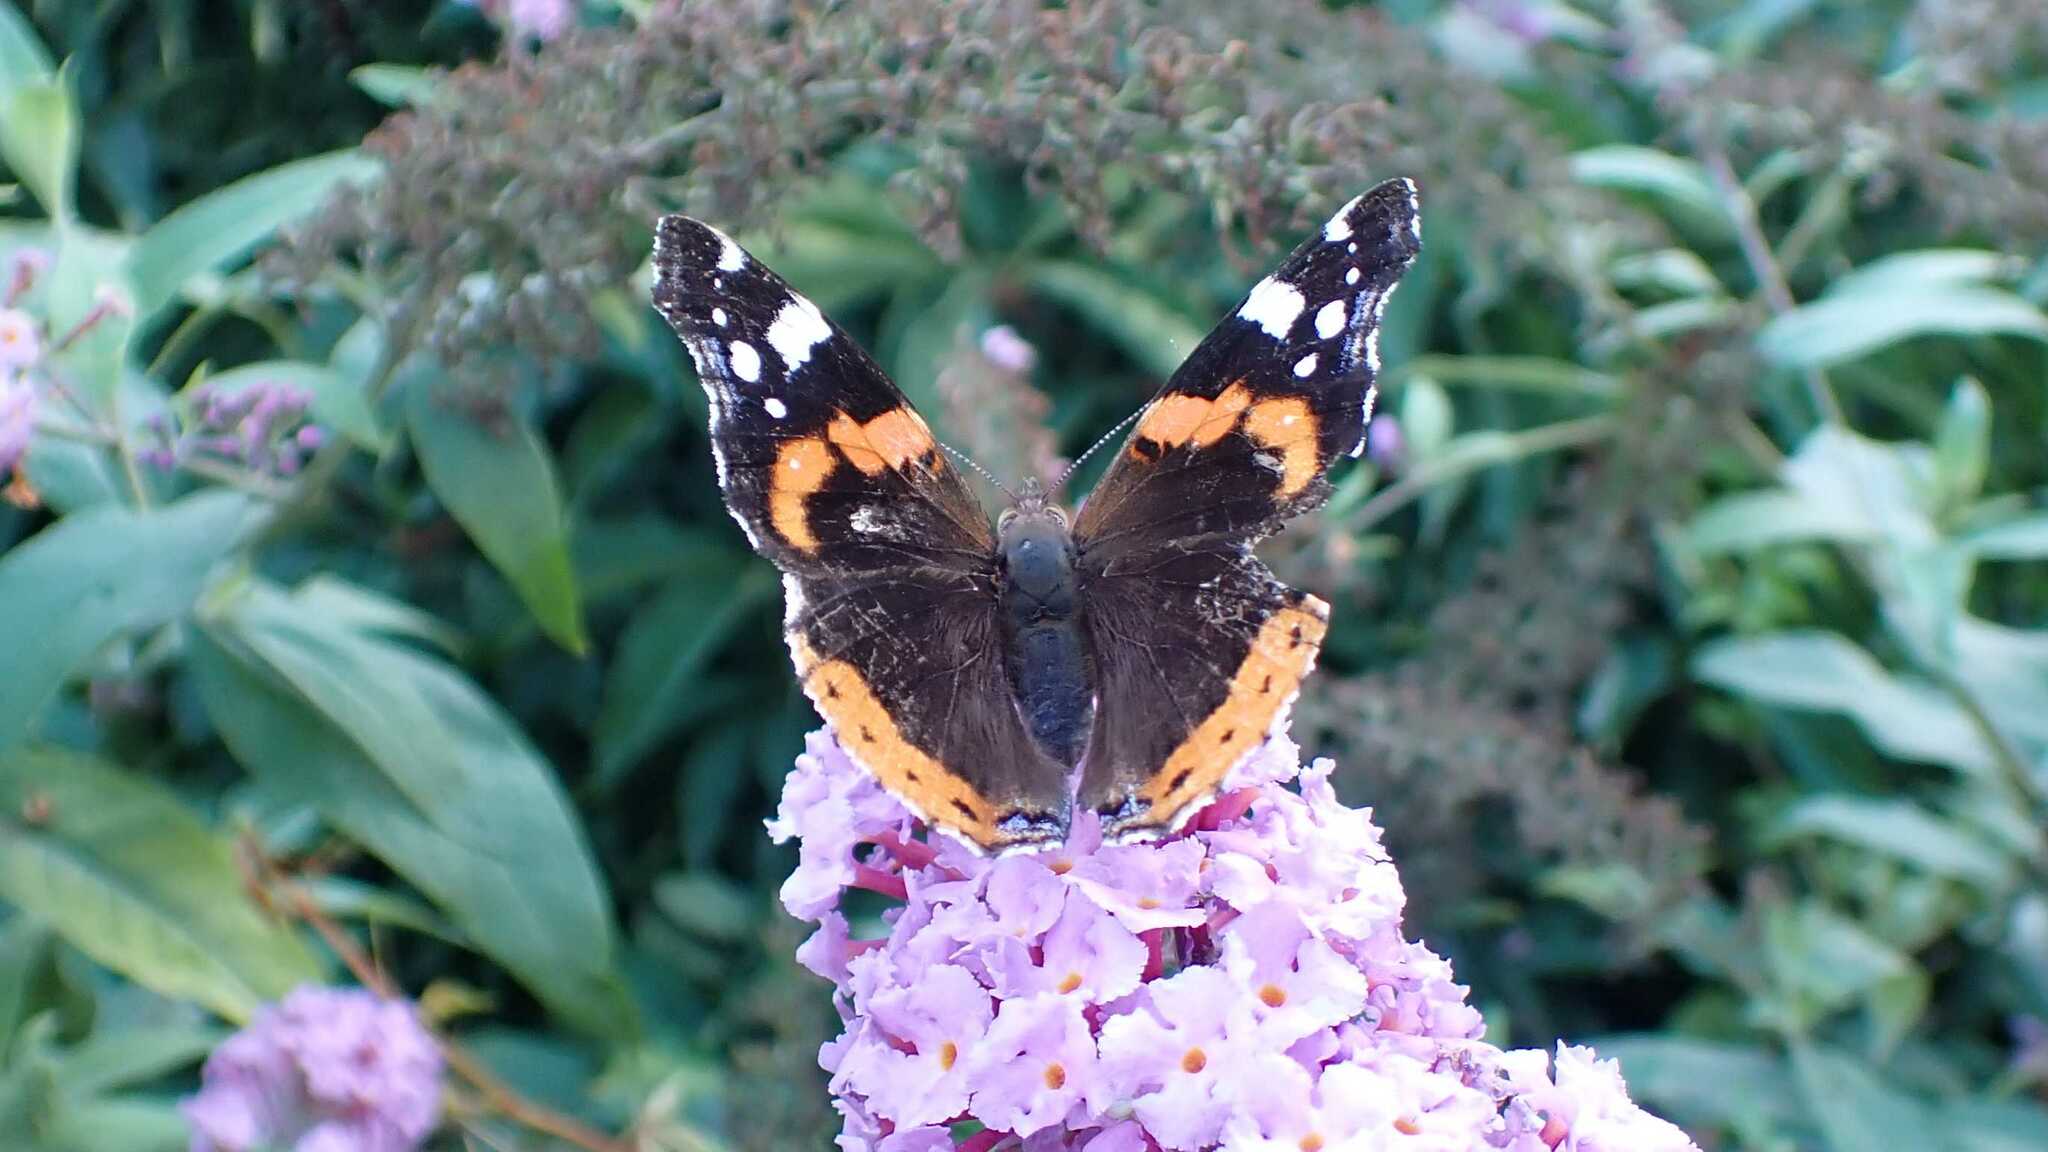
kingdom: Animalia
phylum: Arthropoda
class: Insecta
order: Lepidoptera
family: Nymphalidae
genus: Vanessa
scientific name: Vanessa atalanta
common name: Red admiral
